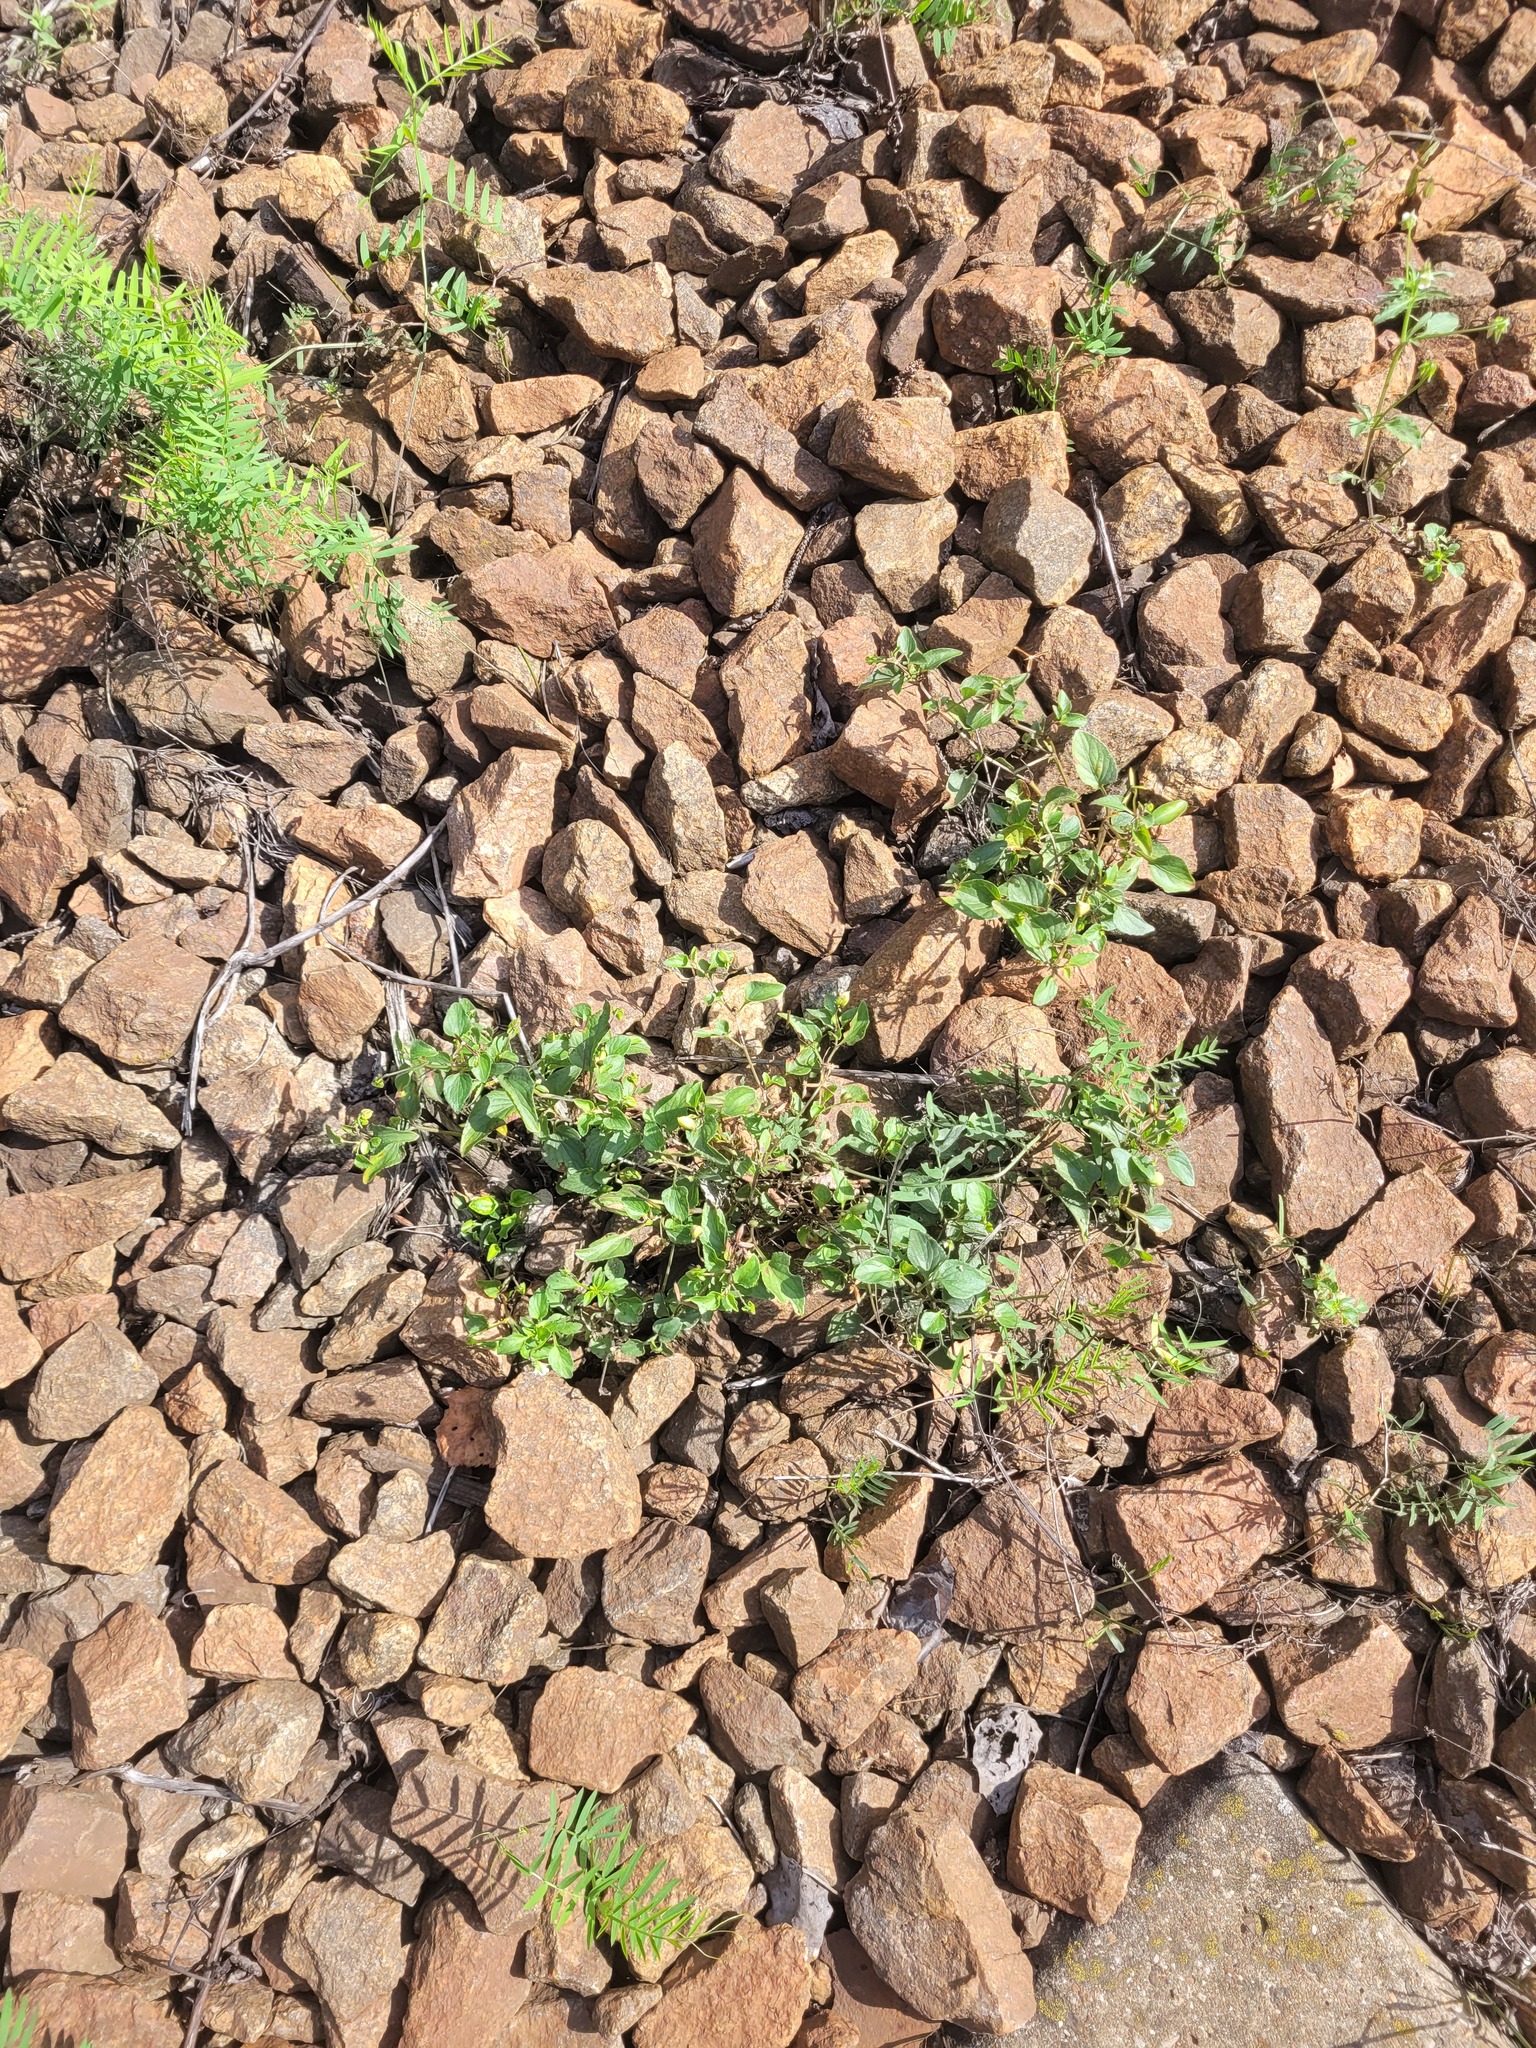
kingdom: Plantae
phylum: Tracheophyta
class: Magnoliopsida
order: Malpighiales
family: Violaceae
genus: Viola
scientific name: Viola canina
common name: Heath dog-violet
